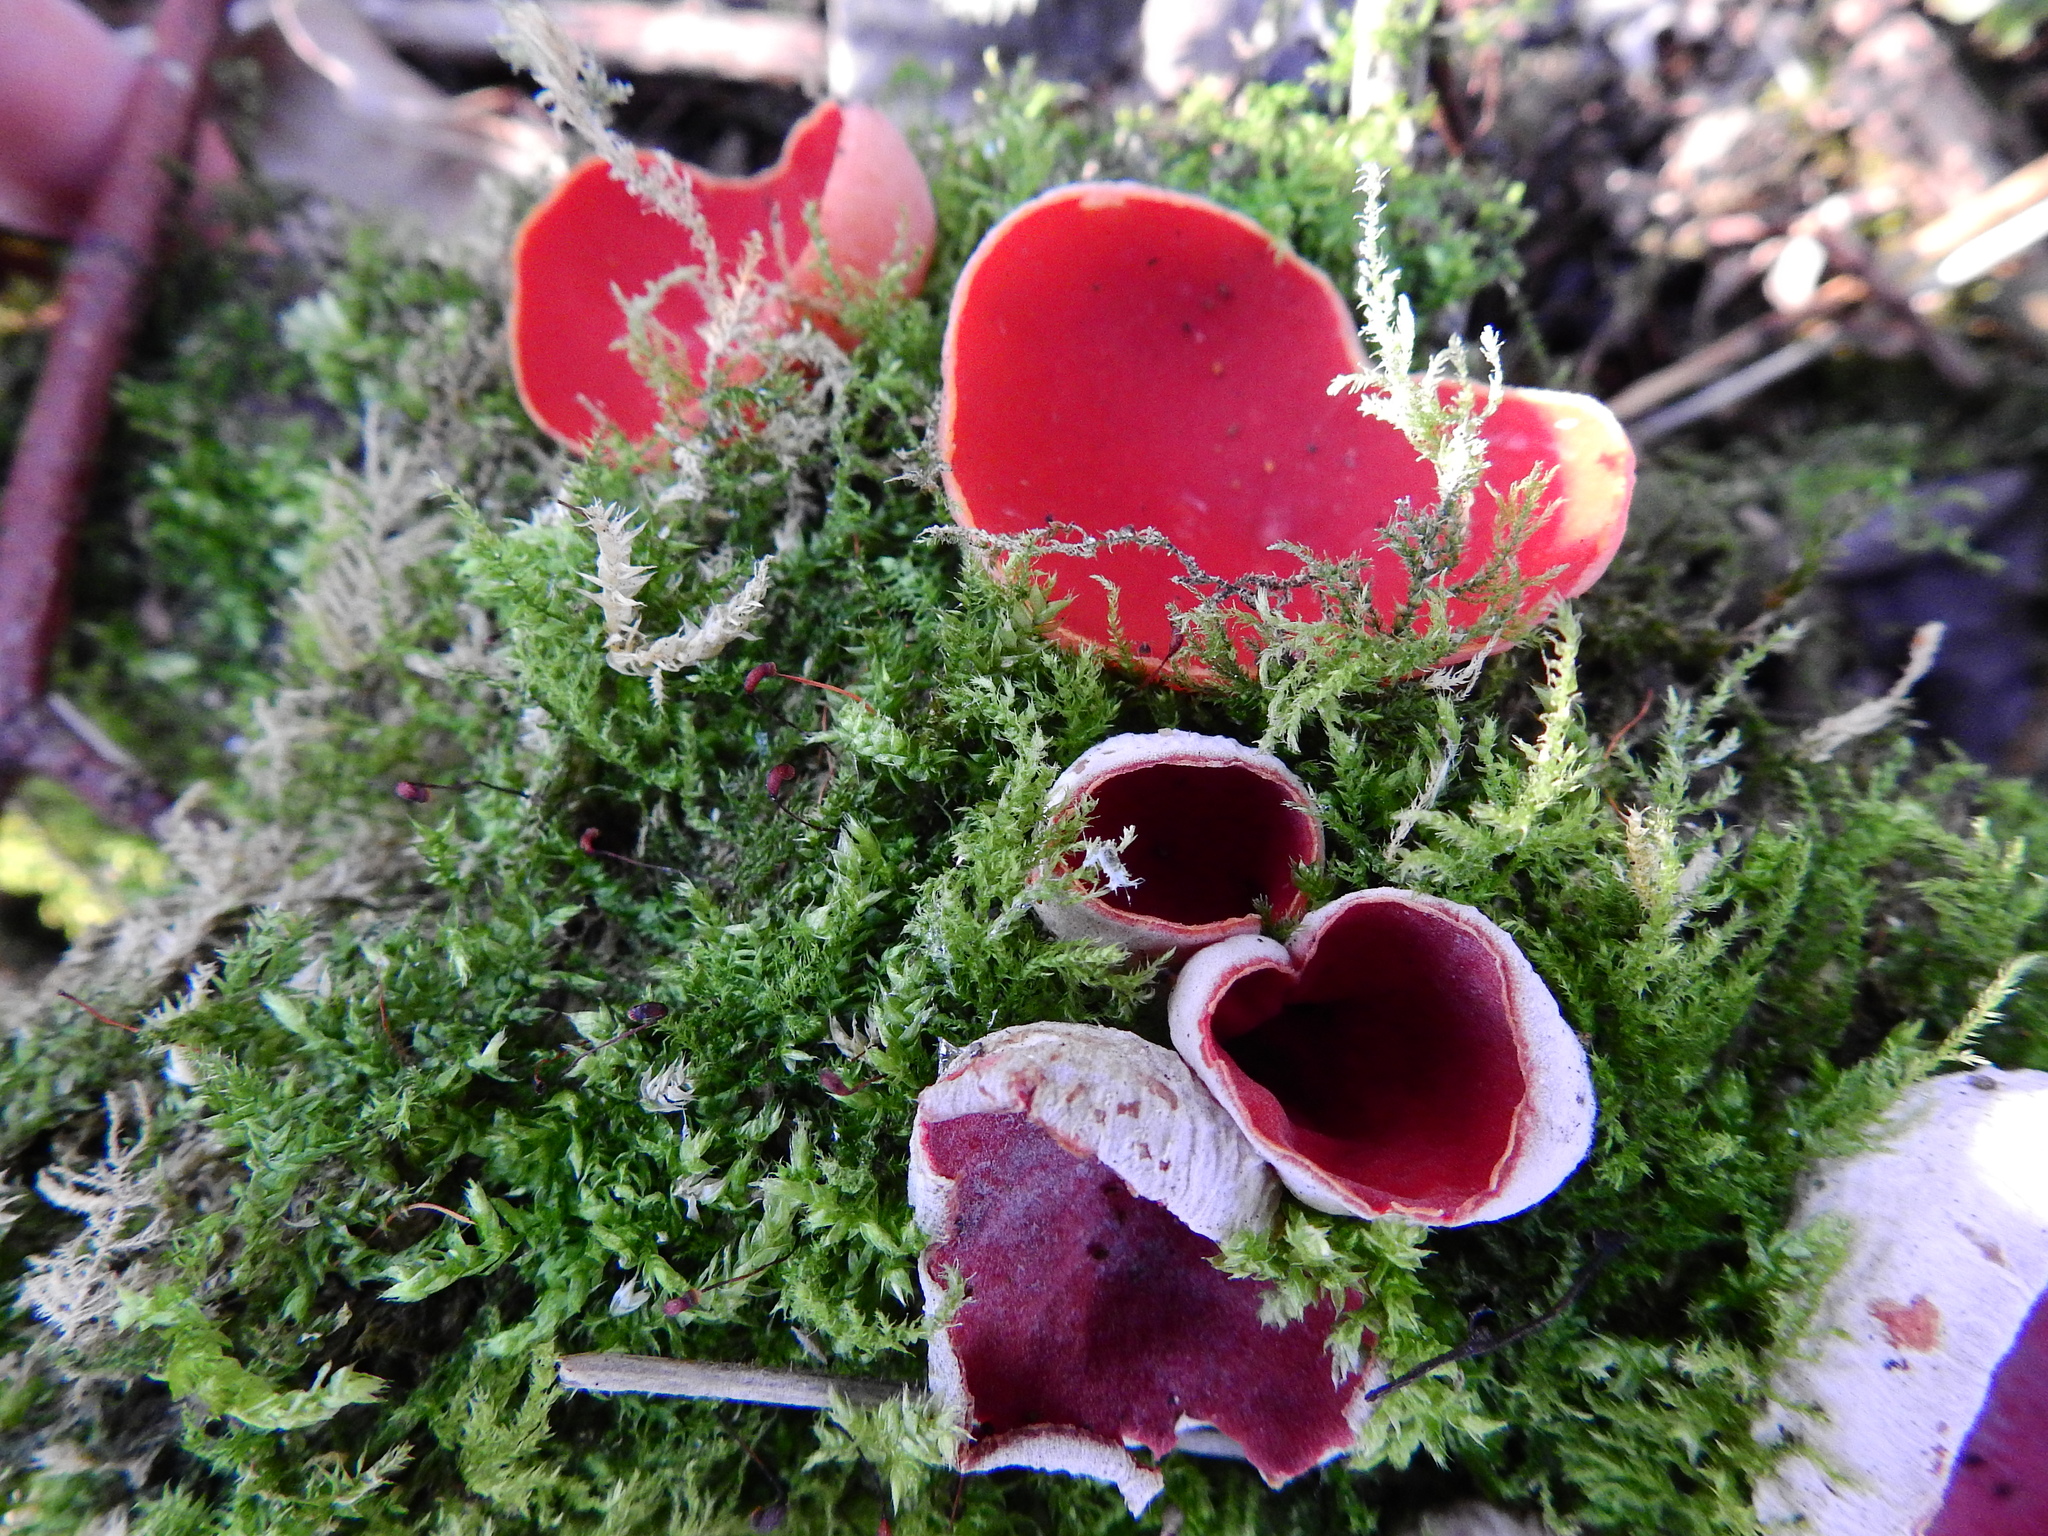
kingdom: Fungi
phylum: Ascomycota
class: Pezizomycetes
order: Pezizales
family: Sarcoscyphaceae
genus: Sarcoscypha
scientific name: Sarcoscypha
